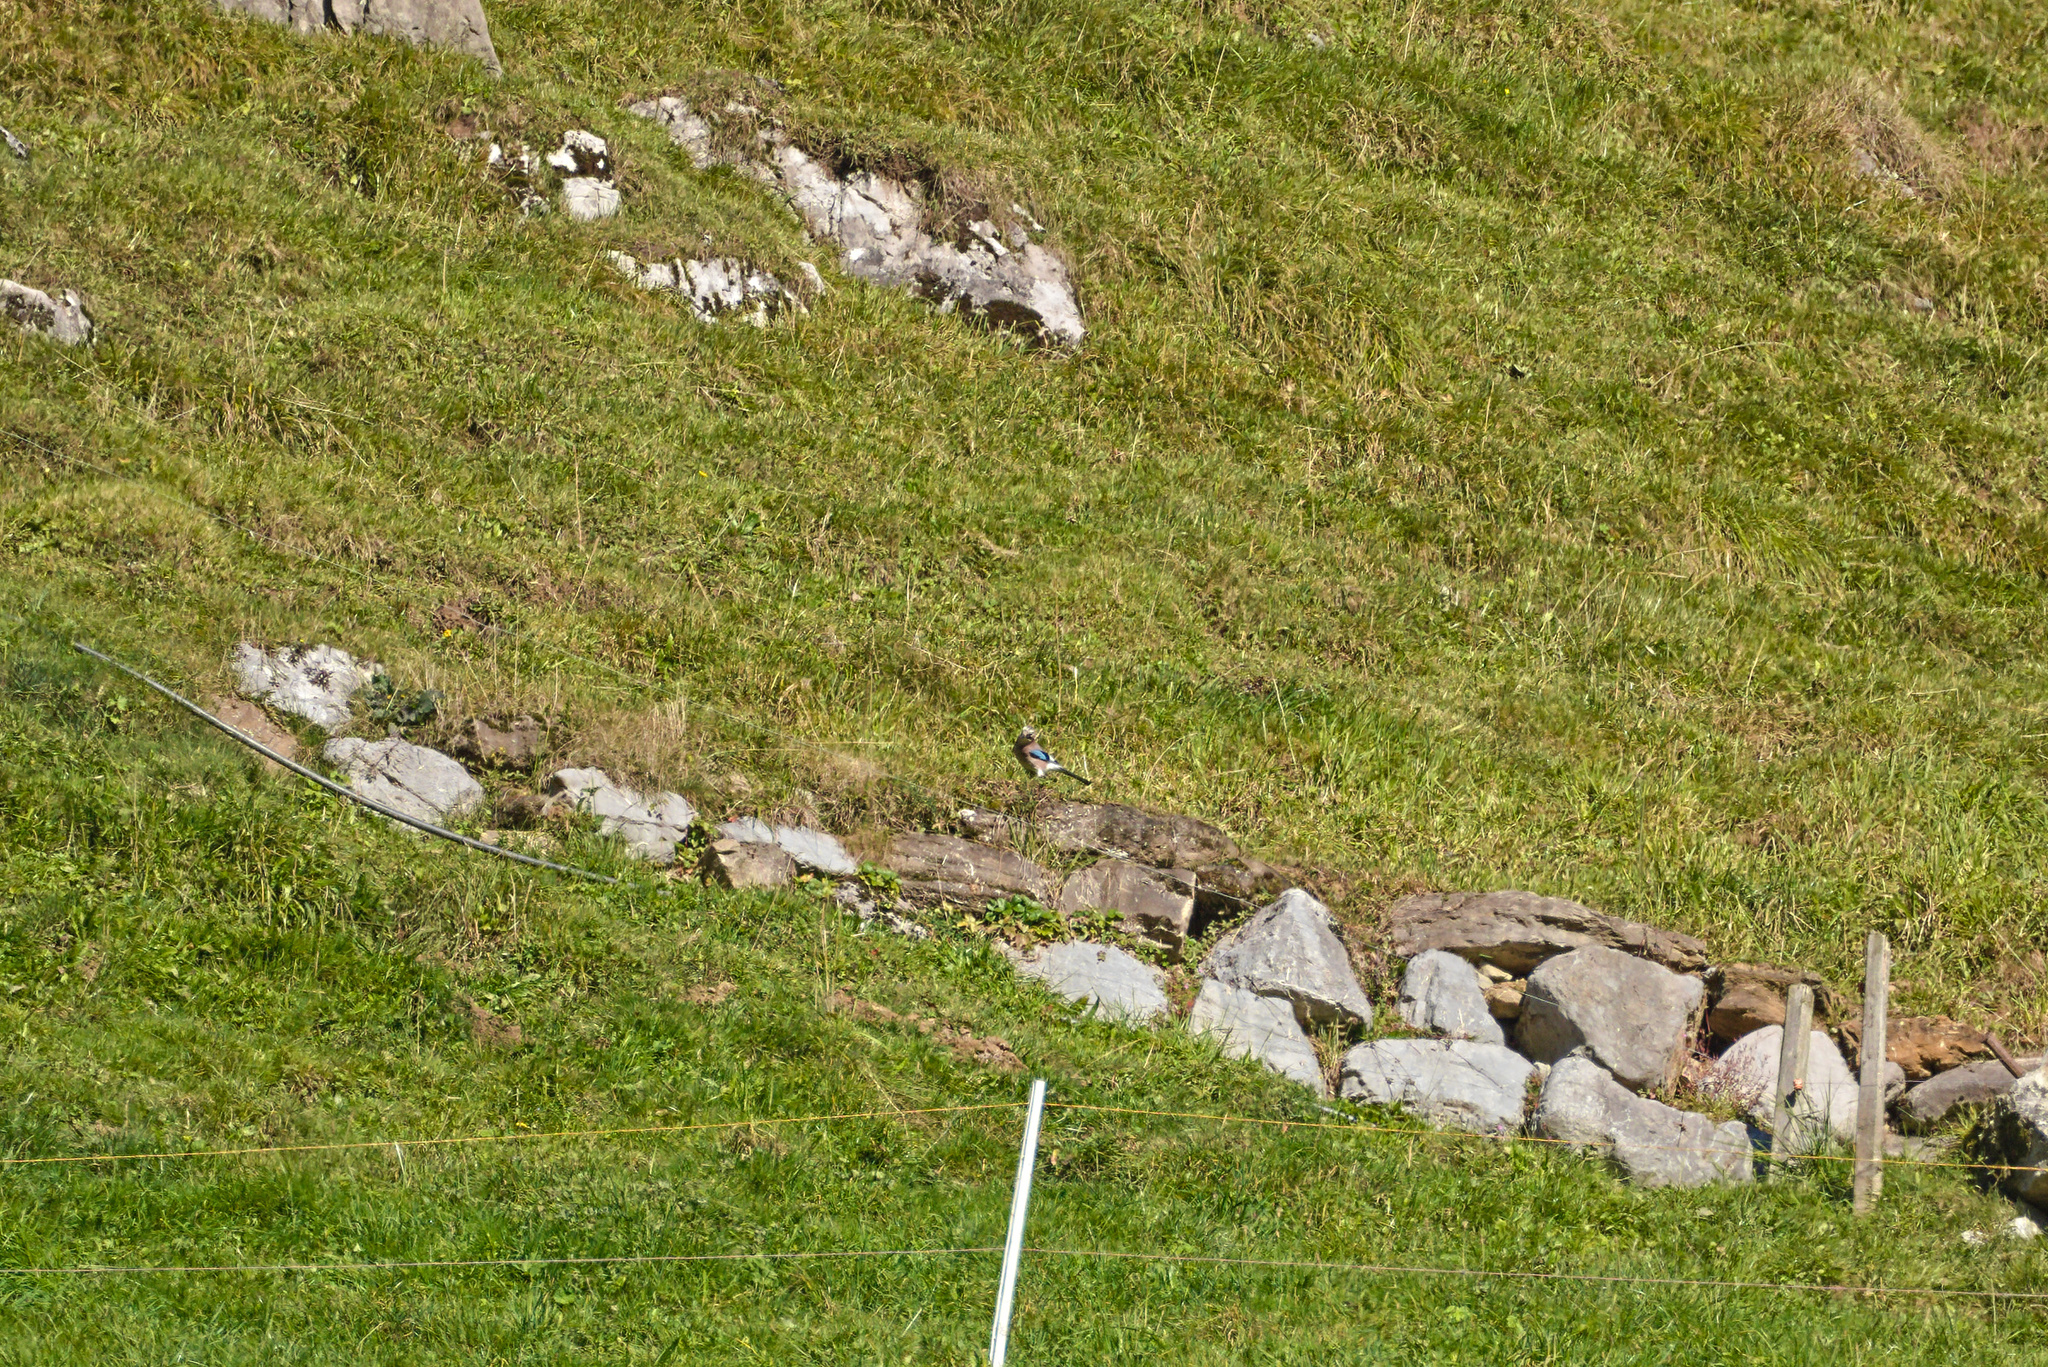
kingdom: Animalia
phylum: Chordata
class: Aves
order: Passeriformes
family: Corvidae
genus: Garrulus
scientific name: Garrulus glandarius
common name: Eurasian jay
